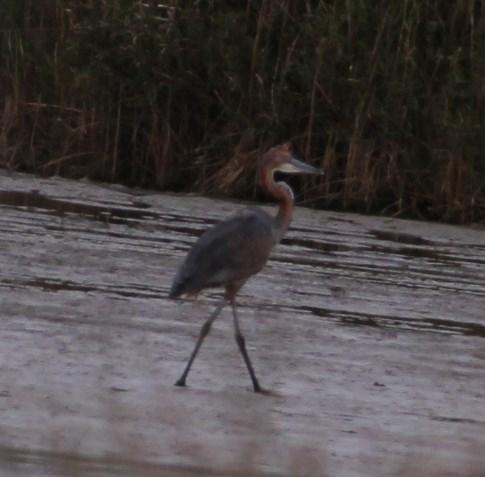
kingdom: Animalia
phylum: Chordata
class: Aves
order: Pelecaniformes
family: Ardeidae
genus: Ardea
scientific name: Ardea goliath
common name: Goliath heron
